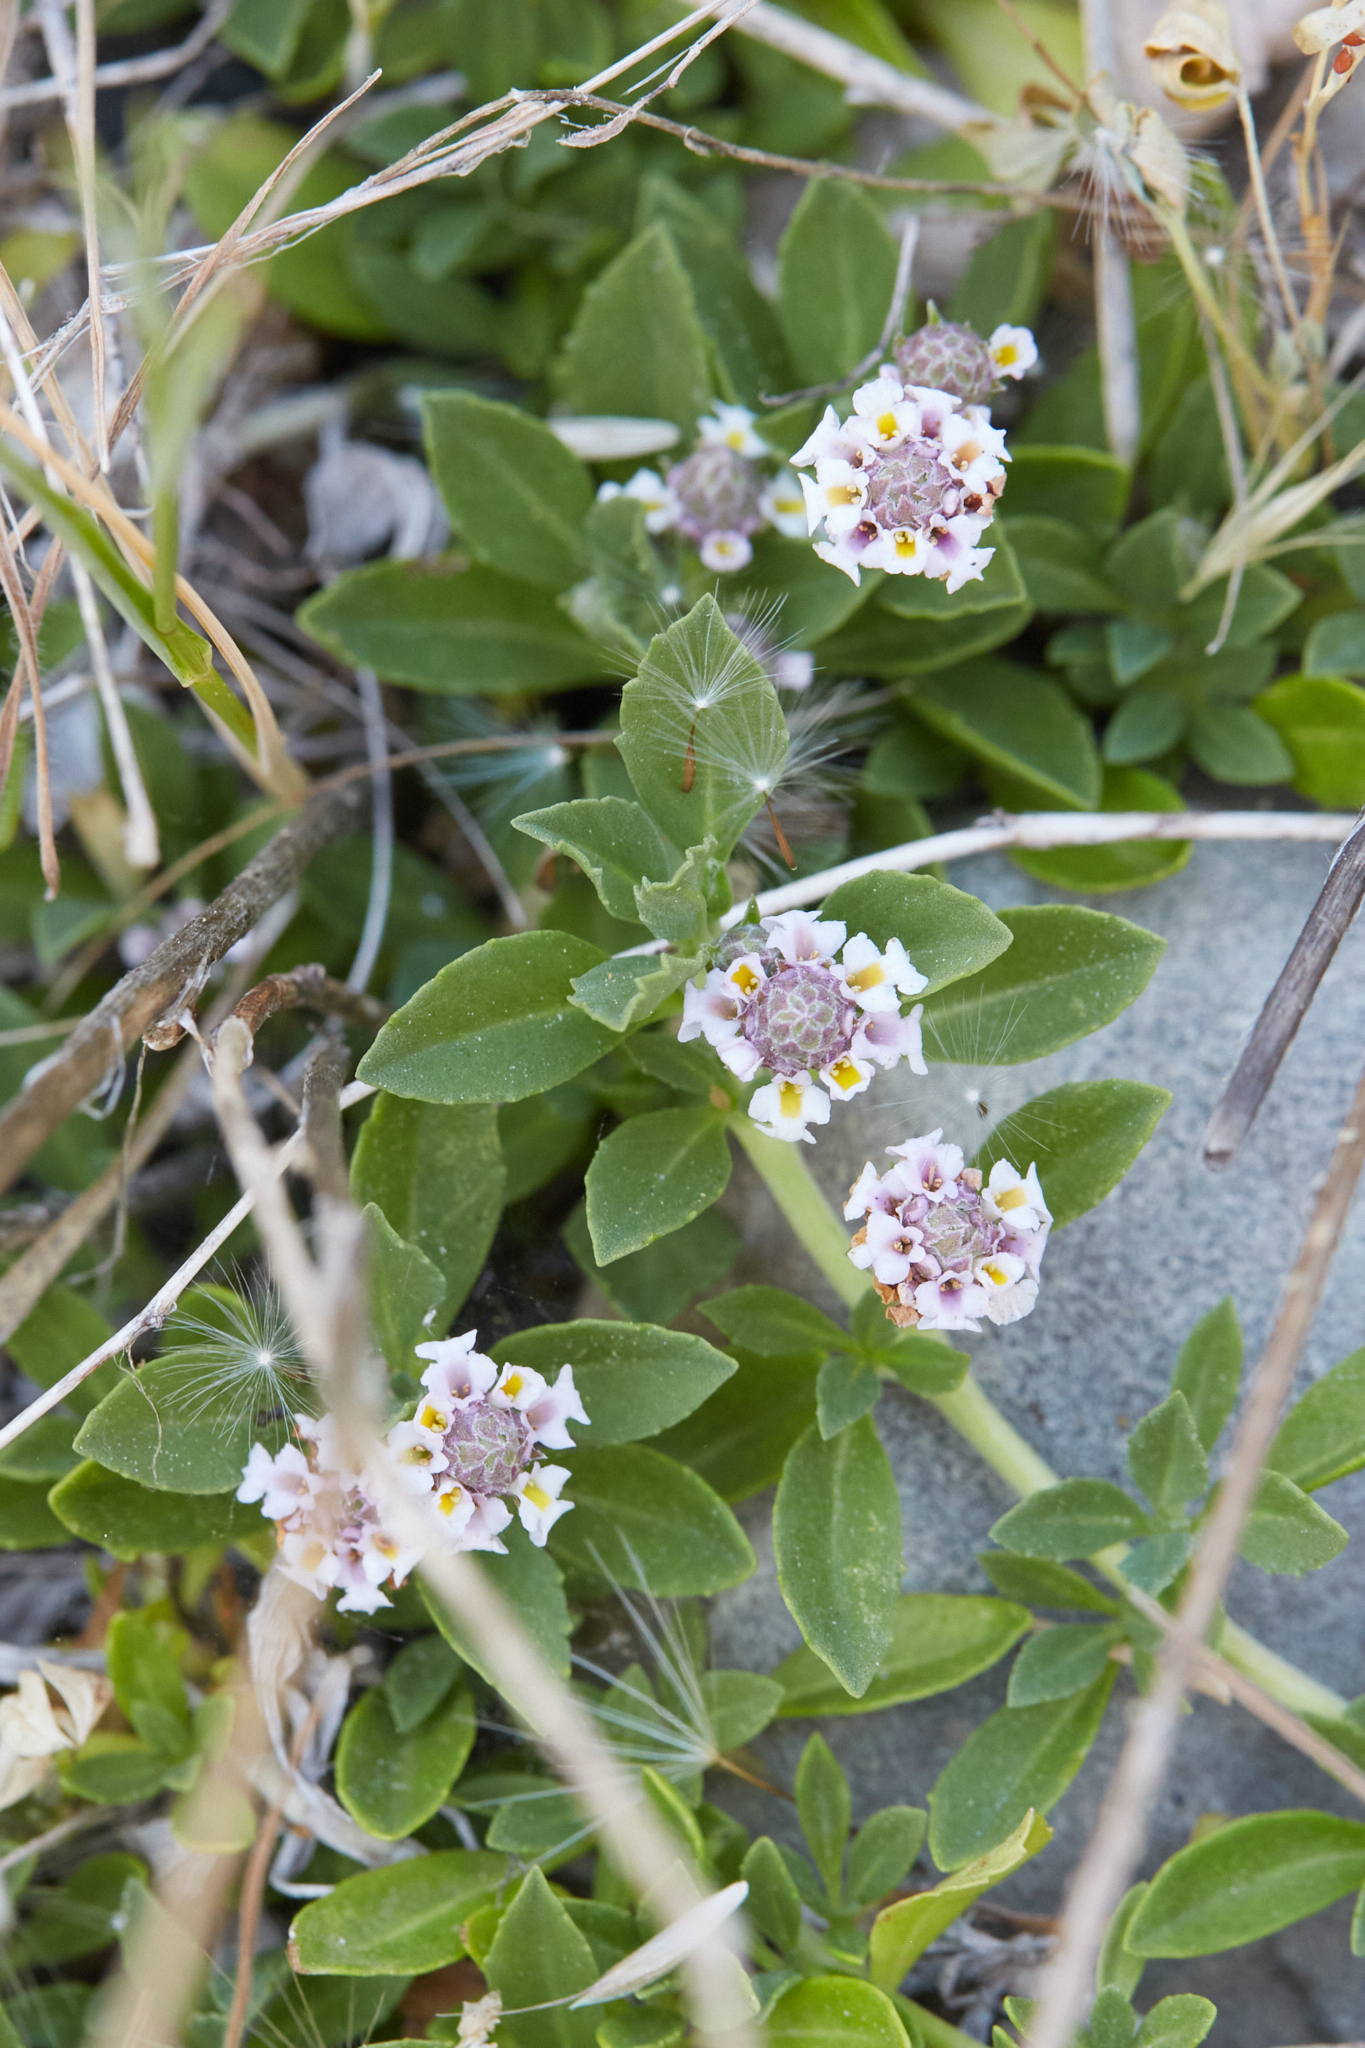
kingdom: Plantae
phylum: Tracheophyta
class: Magnoliopsida
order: Lamiales
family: Verbenaceae
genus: Phyla
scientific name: Phyla nodiflora
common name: Frogfruit
